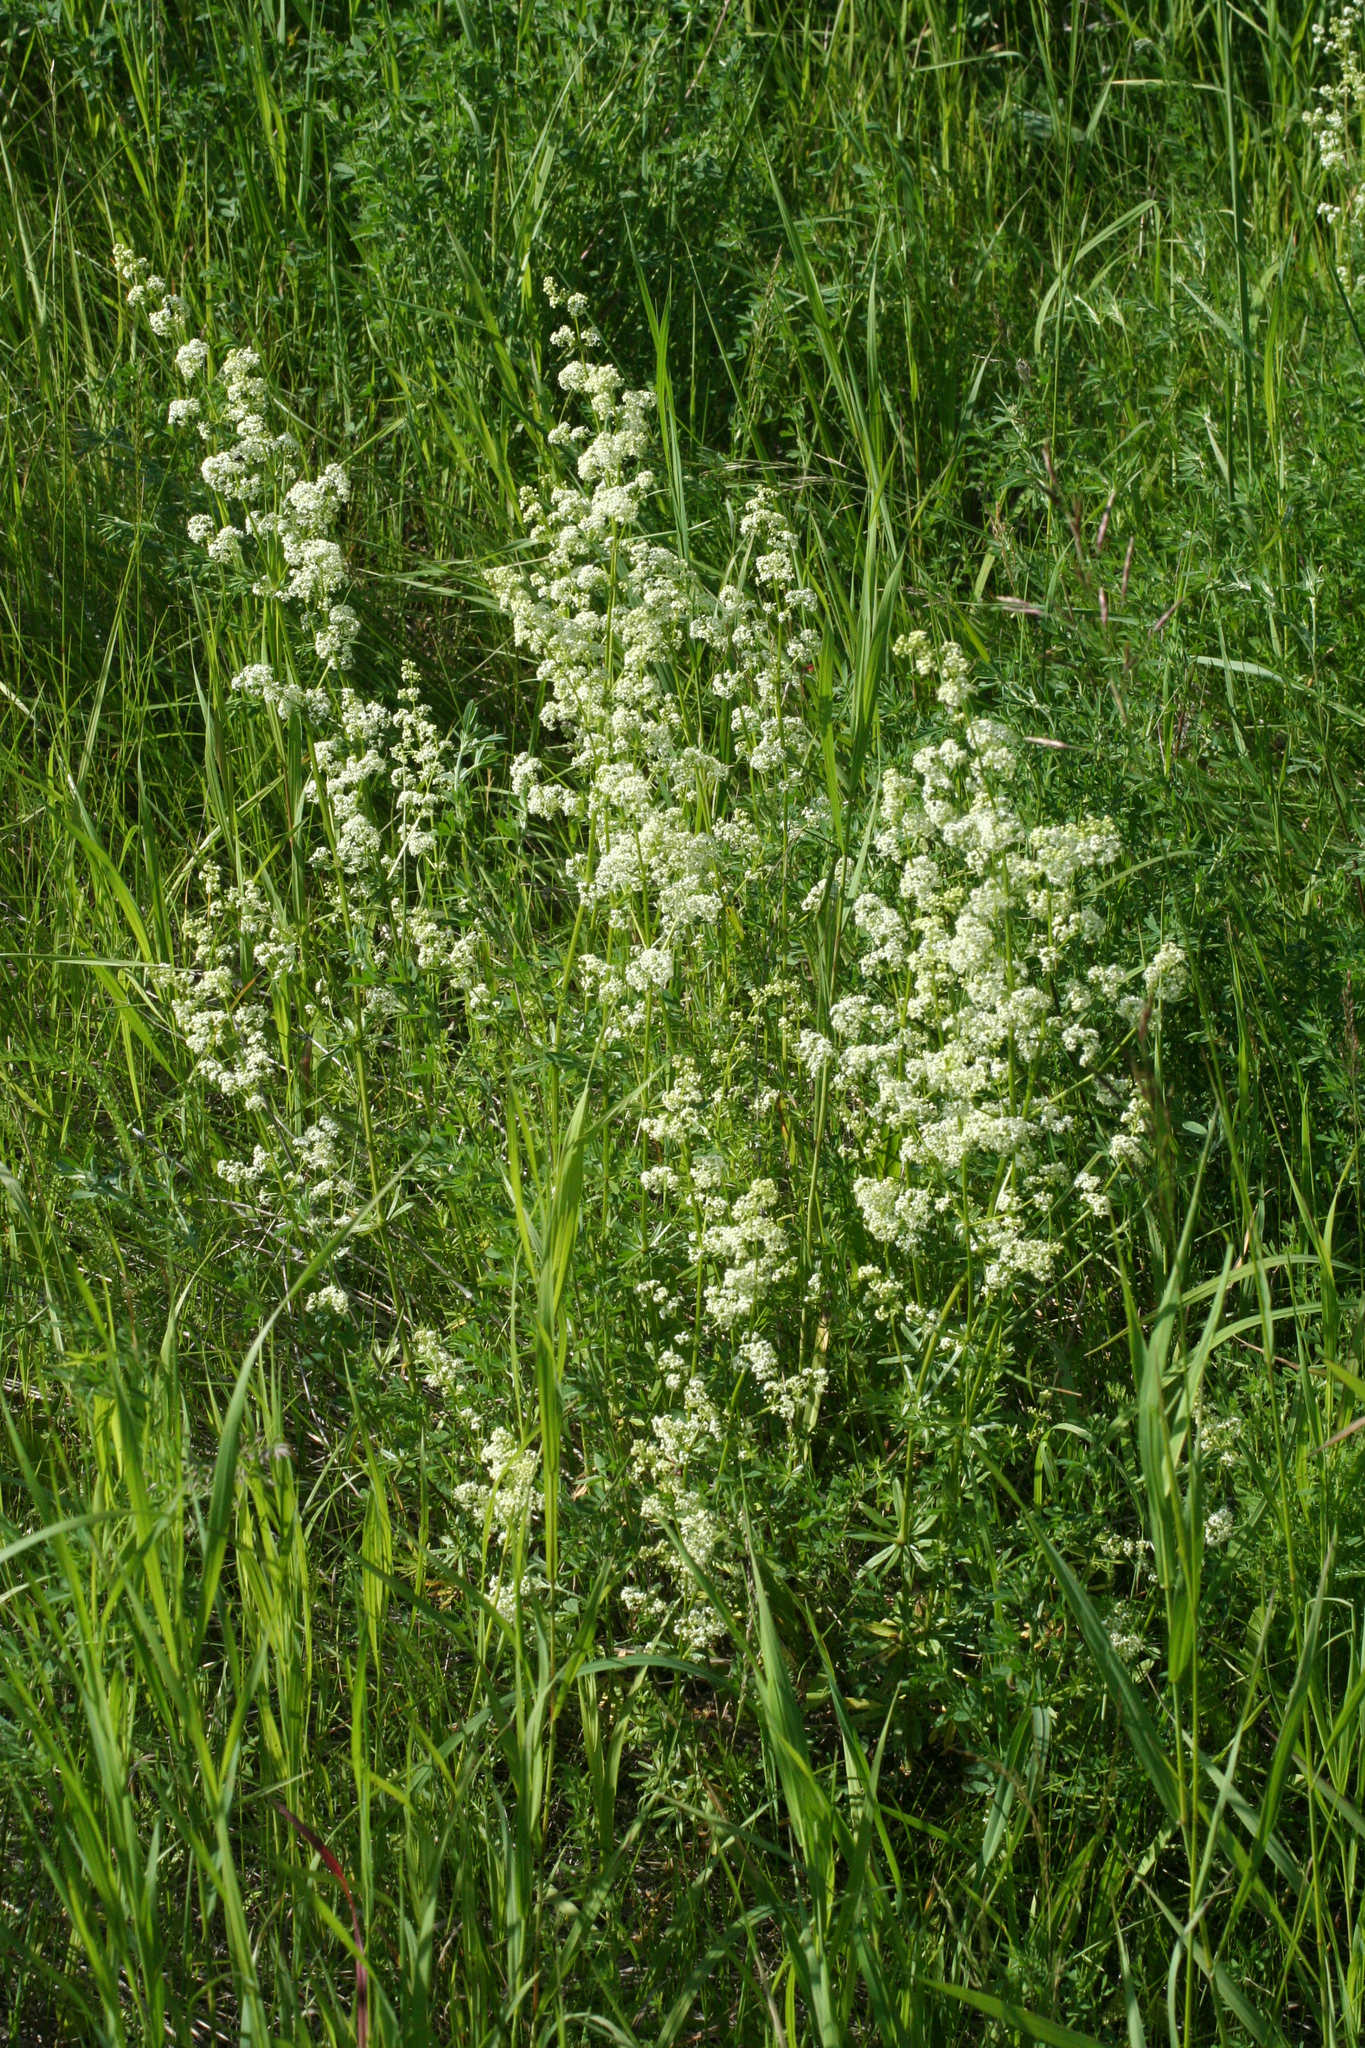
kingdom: Plantae
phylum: Tracheophyta
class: Magnoliopsida
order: Gentianales
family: Rubiaceae
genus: Galium
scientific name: Galium mollugo
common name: Hedge bedstraw
